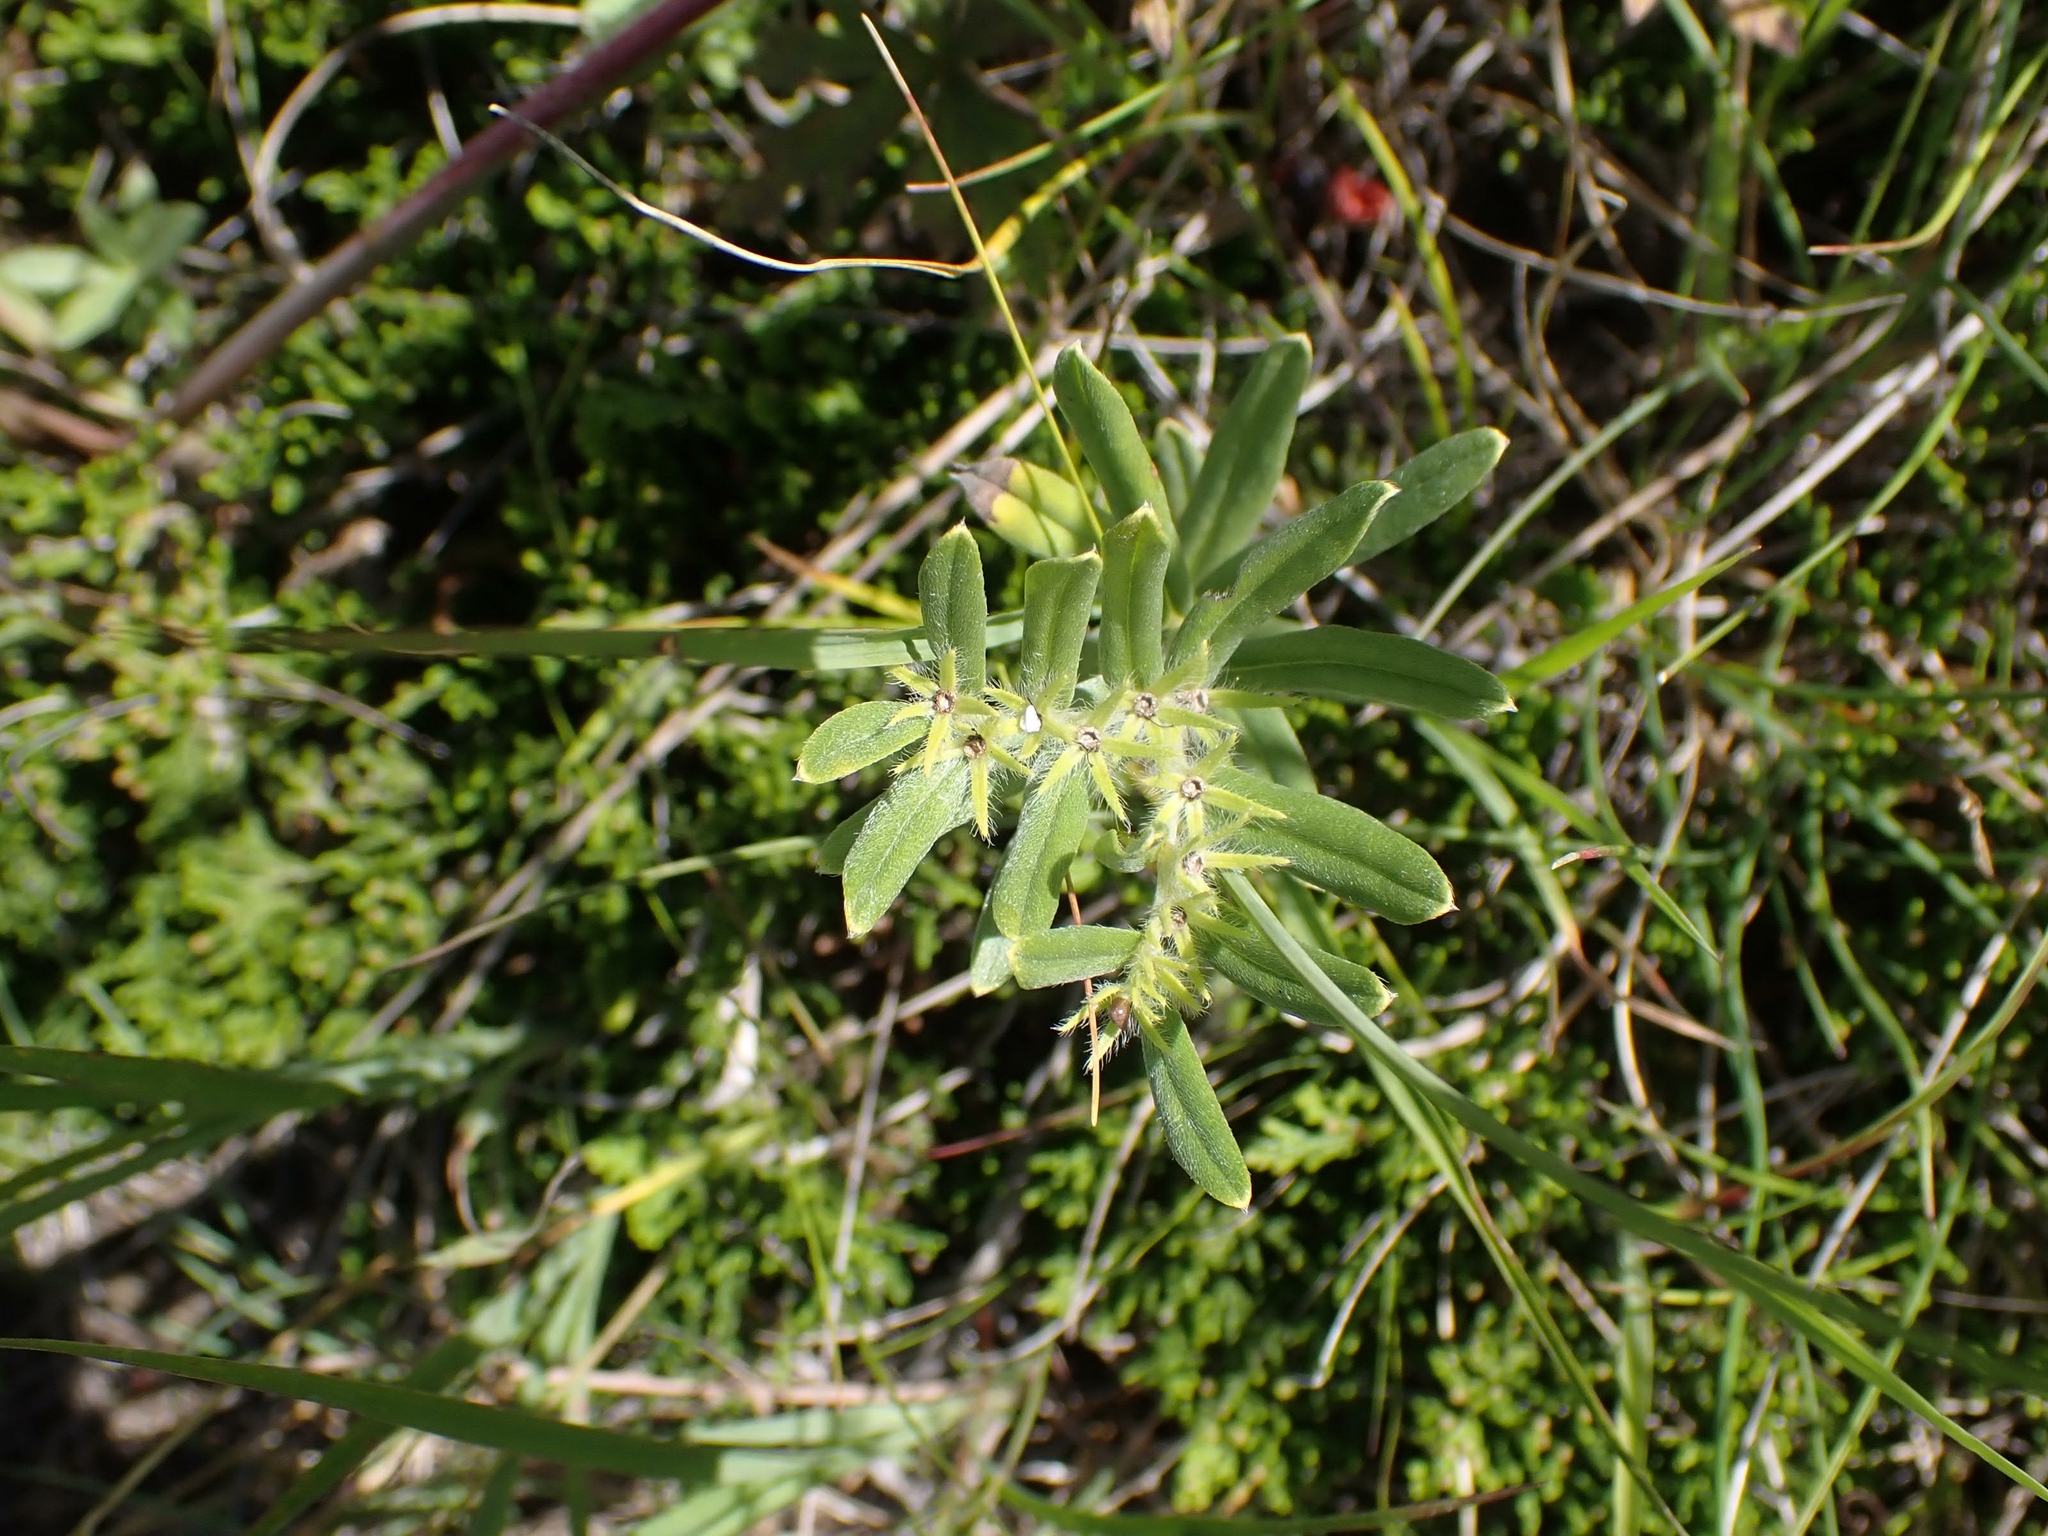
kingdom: Plantae
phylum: Tracheophyta
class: Magnoliopsida
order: Boraginales
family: Boraginaceae
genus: Lithospermum
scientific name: Lithospermum canescens
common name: Hoary puccoon
